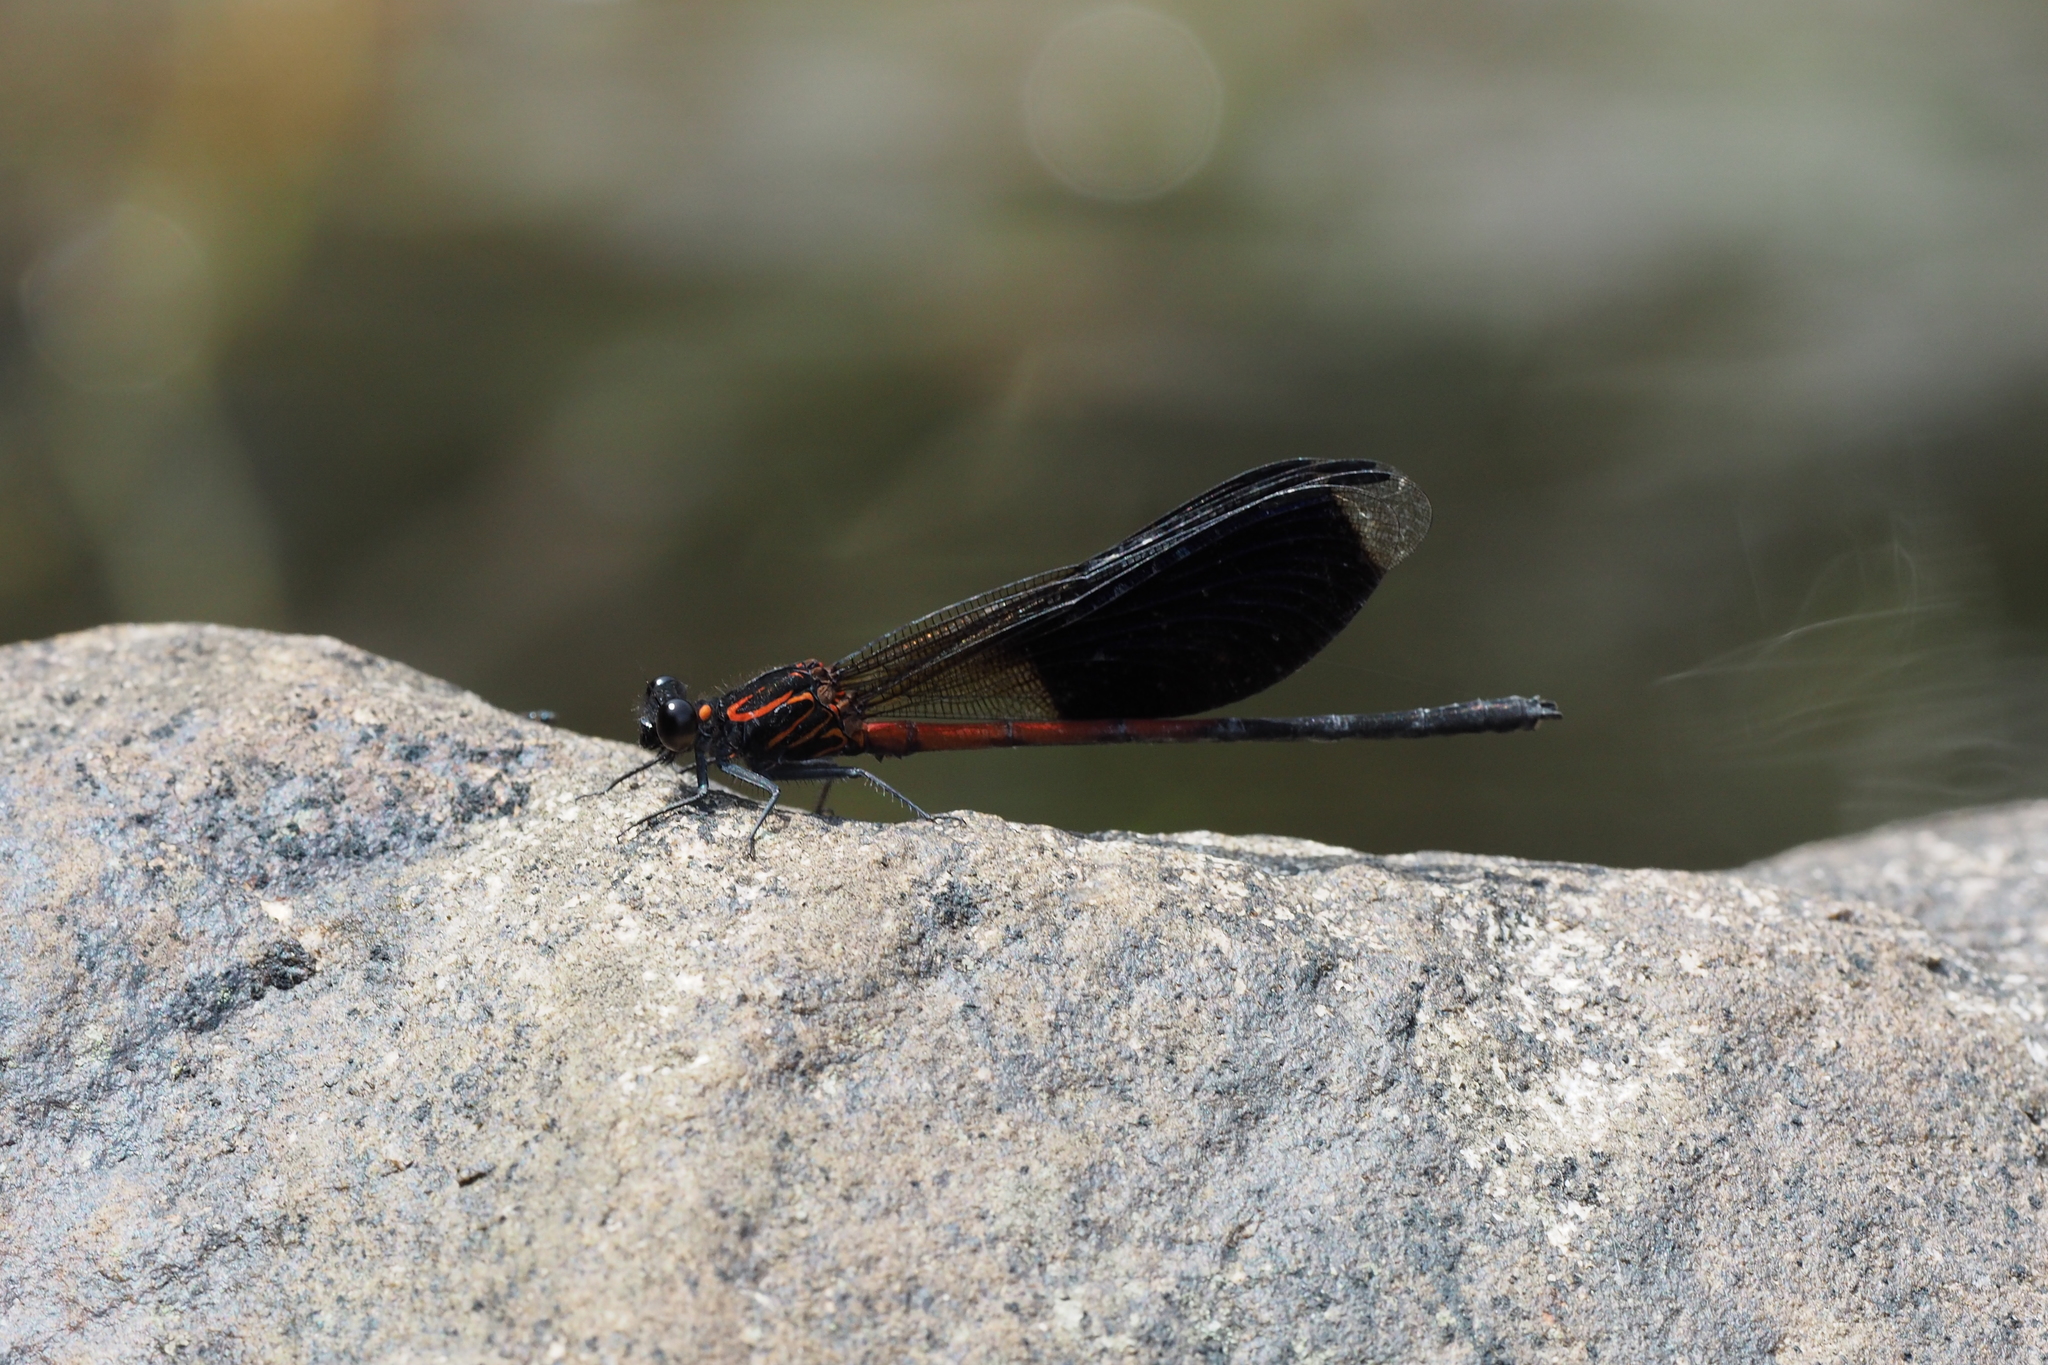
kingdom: Animalia
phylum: Arthropoda
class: Insecta
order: Odonata
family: Euphaeidae
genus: Euphaea
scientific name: Euphaea formosa
